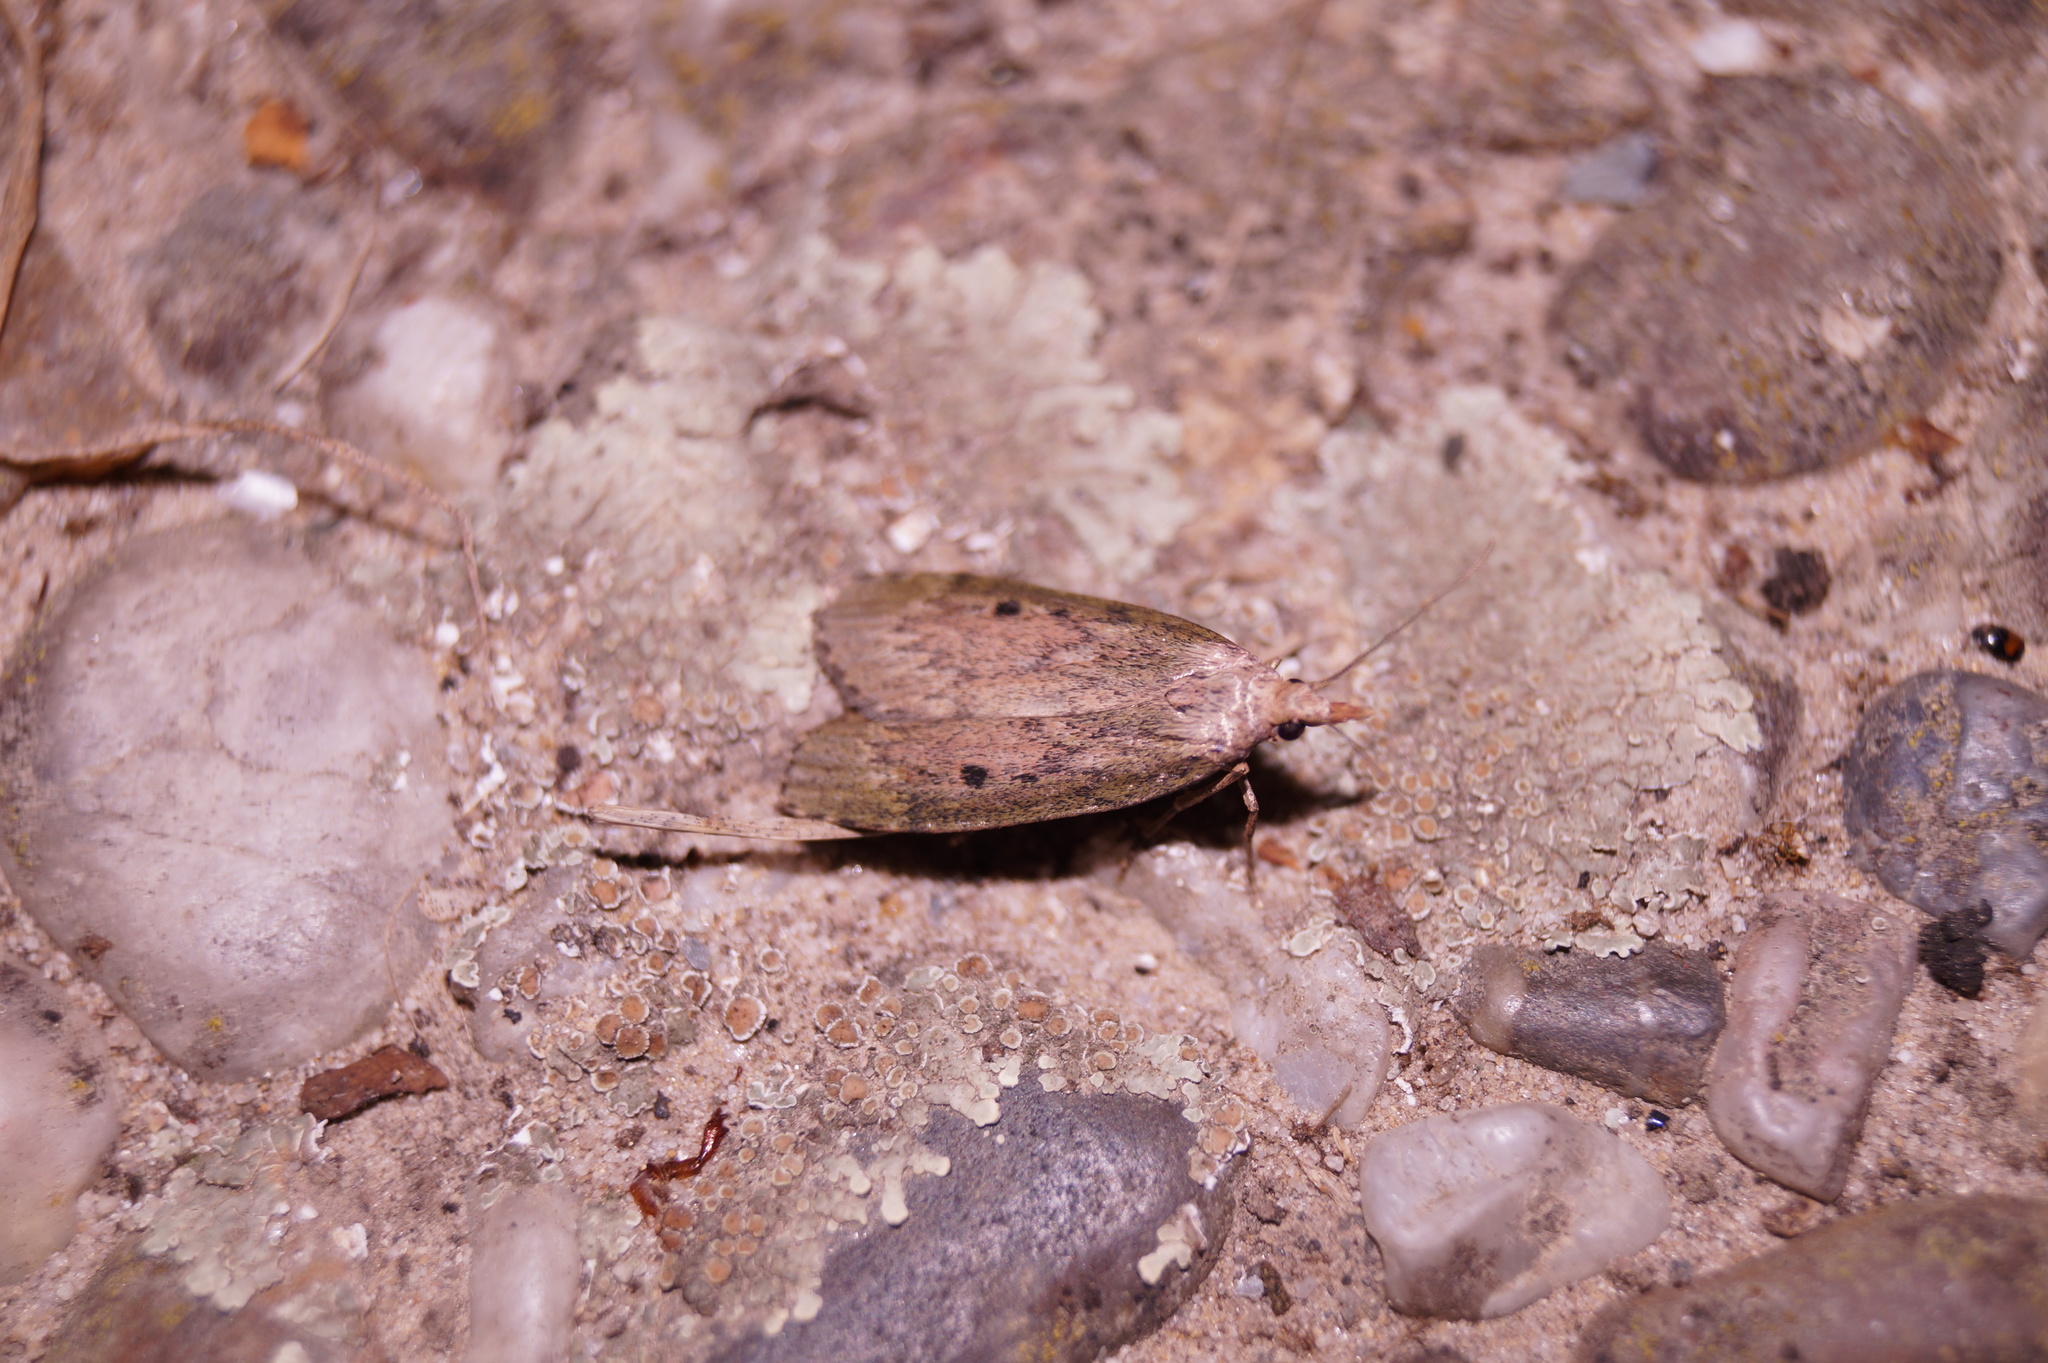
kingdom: Animalia
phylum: Arthropoda
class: Insecta
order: Lepidoptera
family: Pyralidae
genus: Aphomia
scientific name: Aphomia sociella
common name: Bee moth
